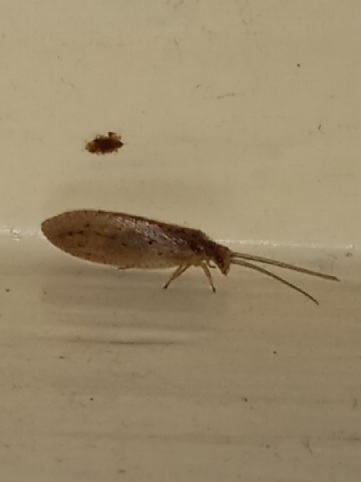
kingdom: Animalia
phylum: Arthropoda
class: Insecta
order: Neuroptera
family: Hemerobiidae
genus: Micromus
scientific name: Micromus subanticus
